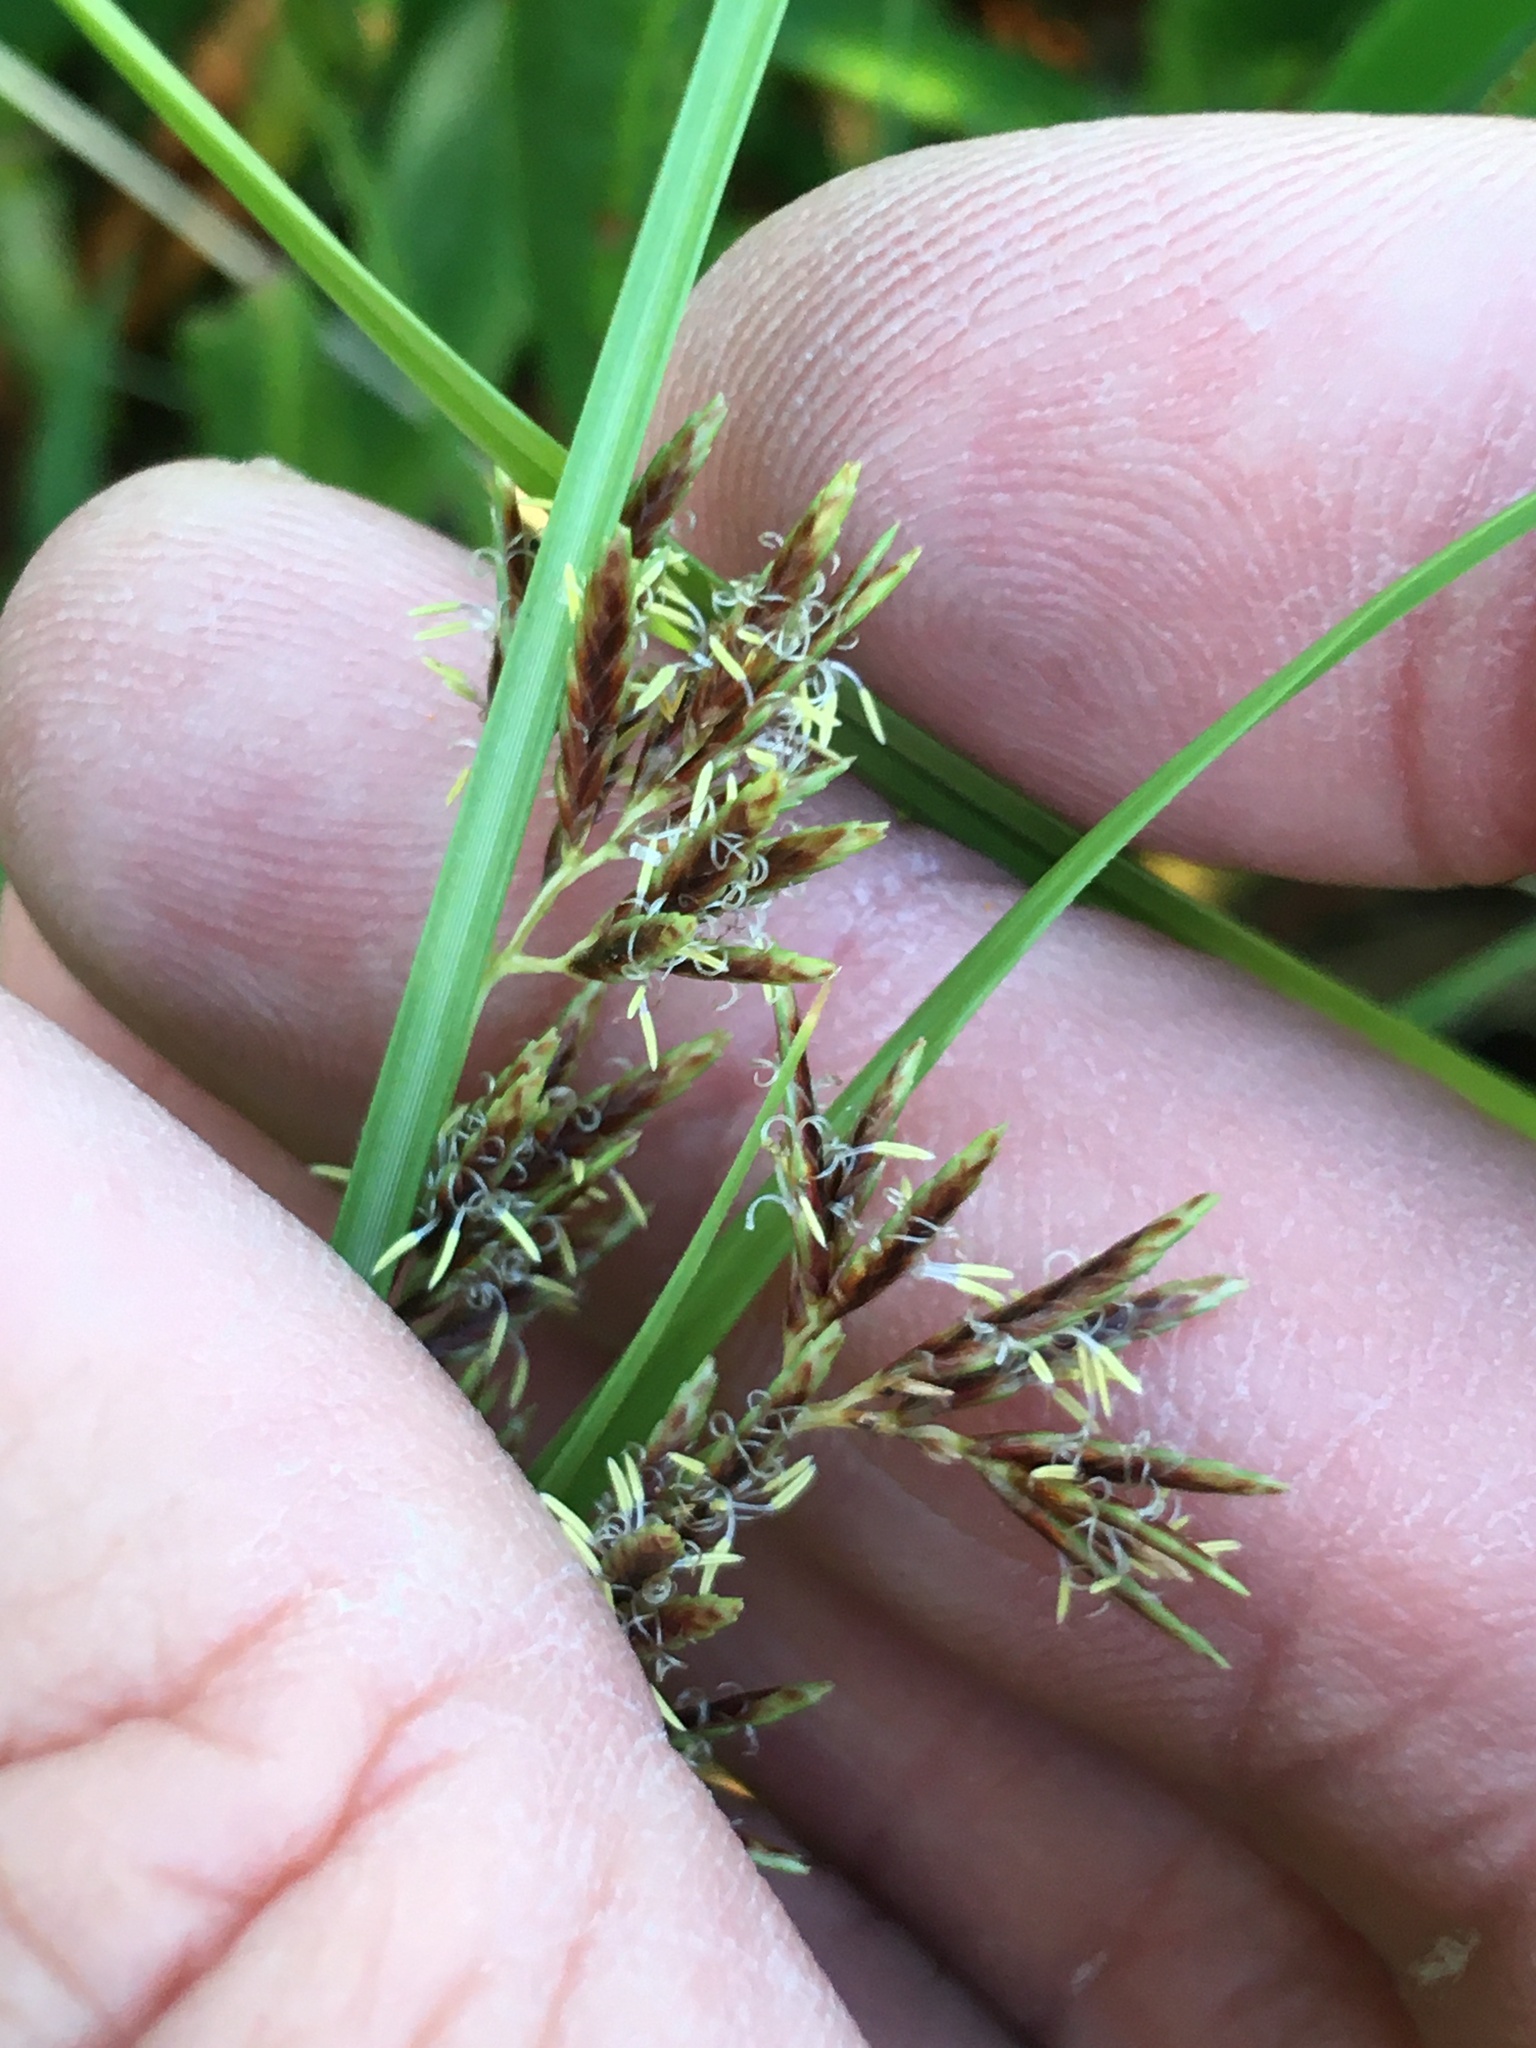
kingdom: Plantae
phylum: Tracheophyta
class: Liliopsida
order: Poales
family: Cyperaceae
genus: Cyperus
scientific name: Cyperus longus
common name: Galingale
